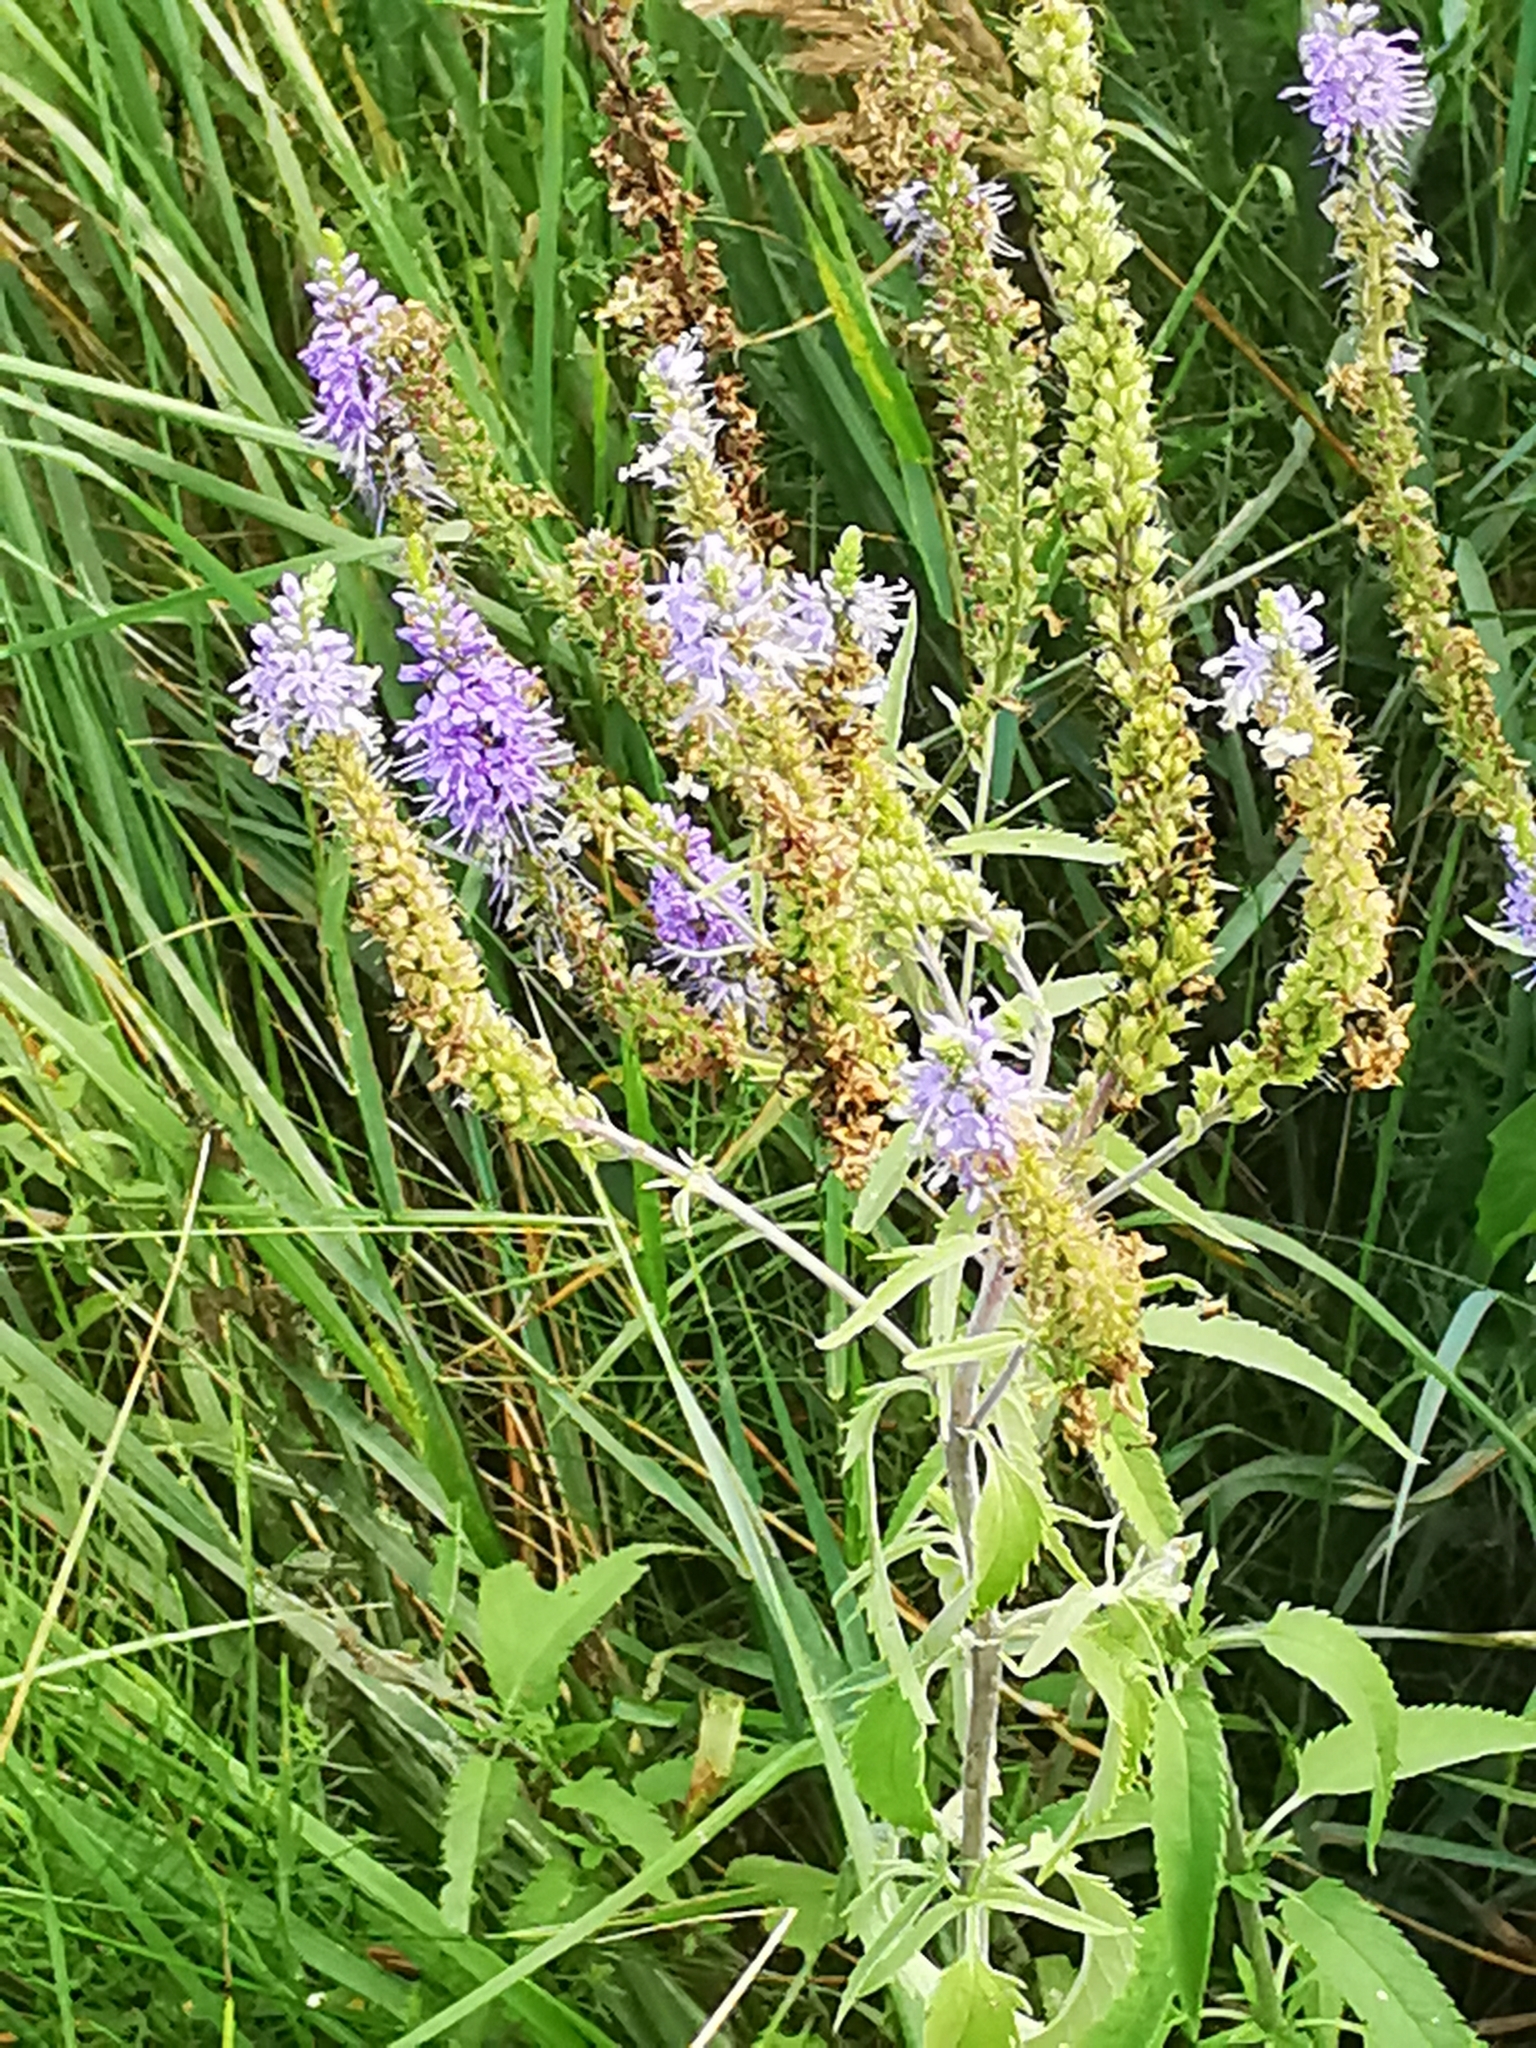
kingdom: Plantae
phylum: Tracheophyta
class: Magnoliopsida
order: Lamiales
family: Plantaginaceae
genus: Veronica
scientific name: Veronica longifolia
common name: Garden speedwell
